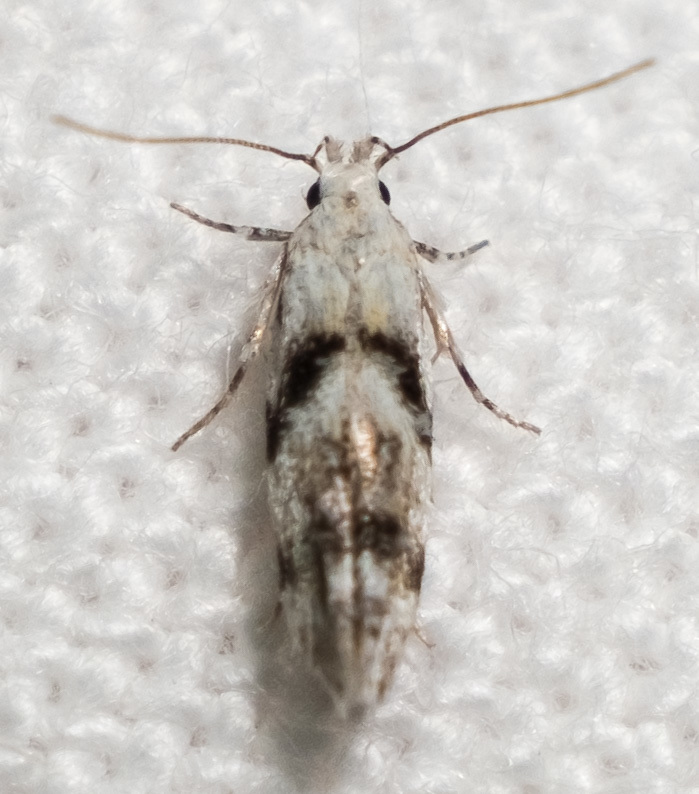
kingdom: Animalia
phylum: Arthropoda
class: Insecta
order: Lepidoptera
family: Gelechiidae
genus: Arogalea
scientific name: Arogalea cristifasciella
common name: White stripe-backed moth
